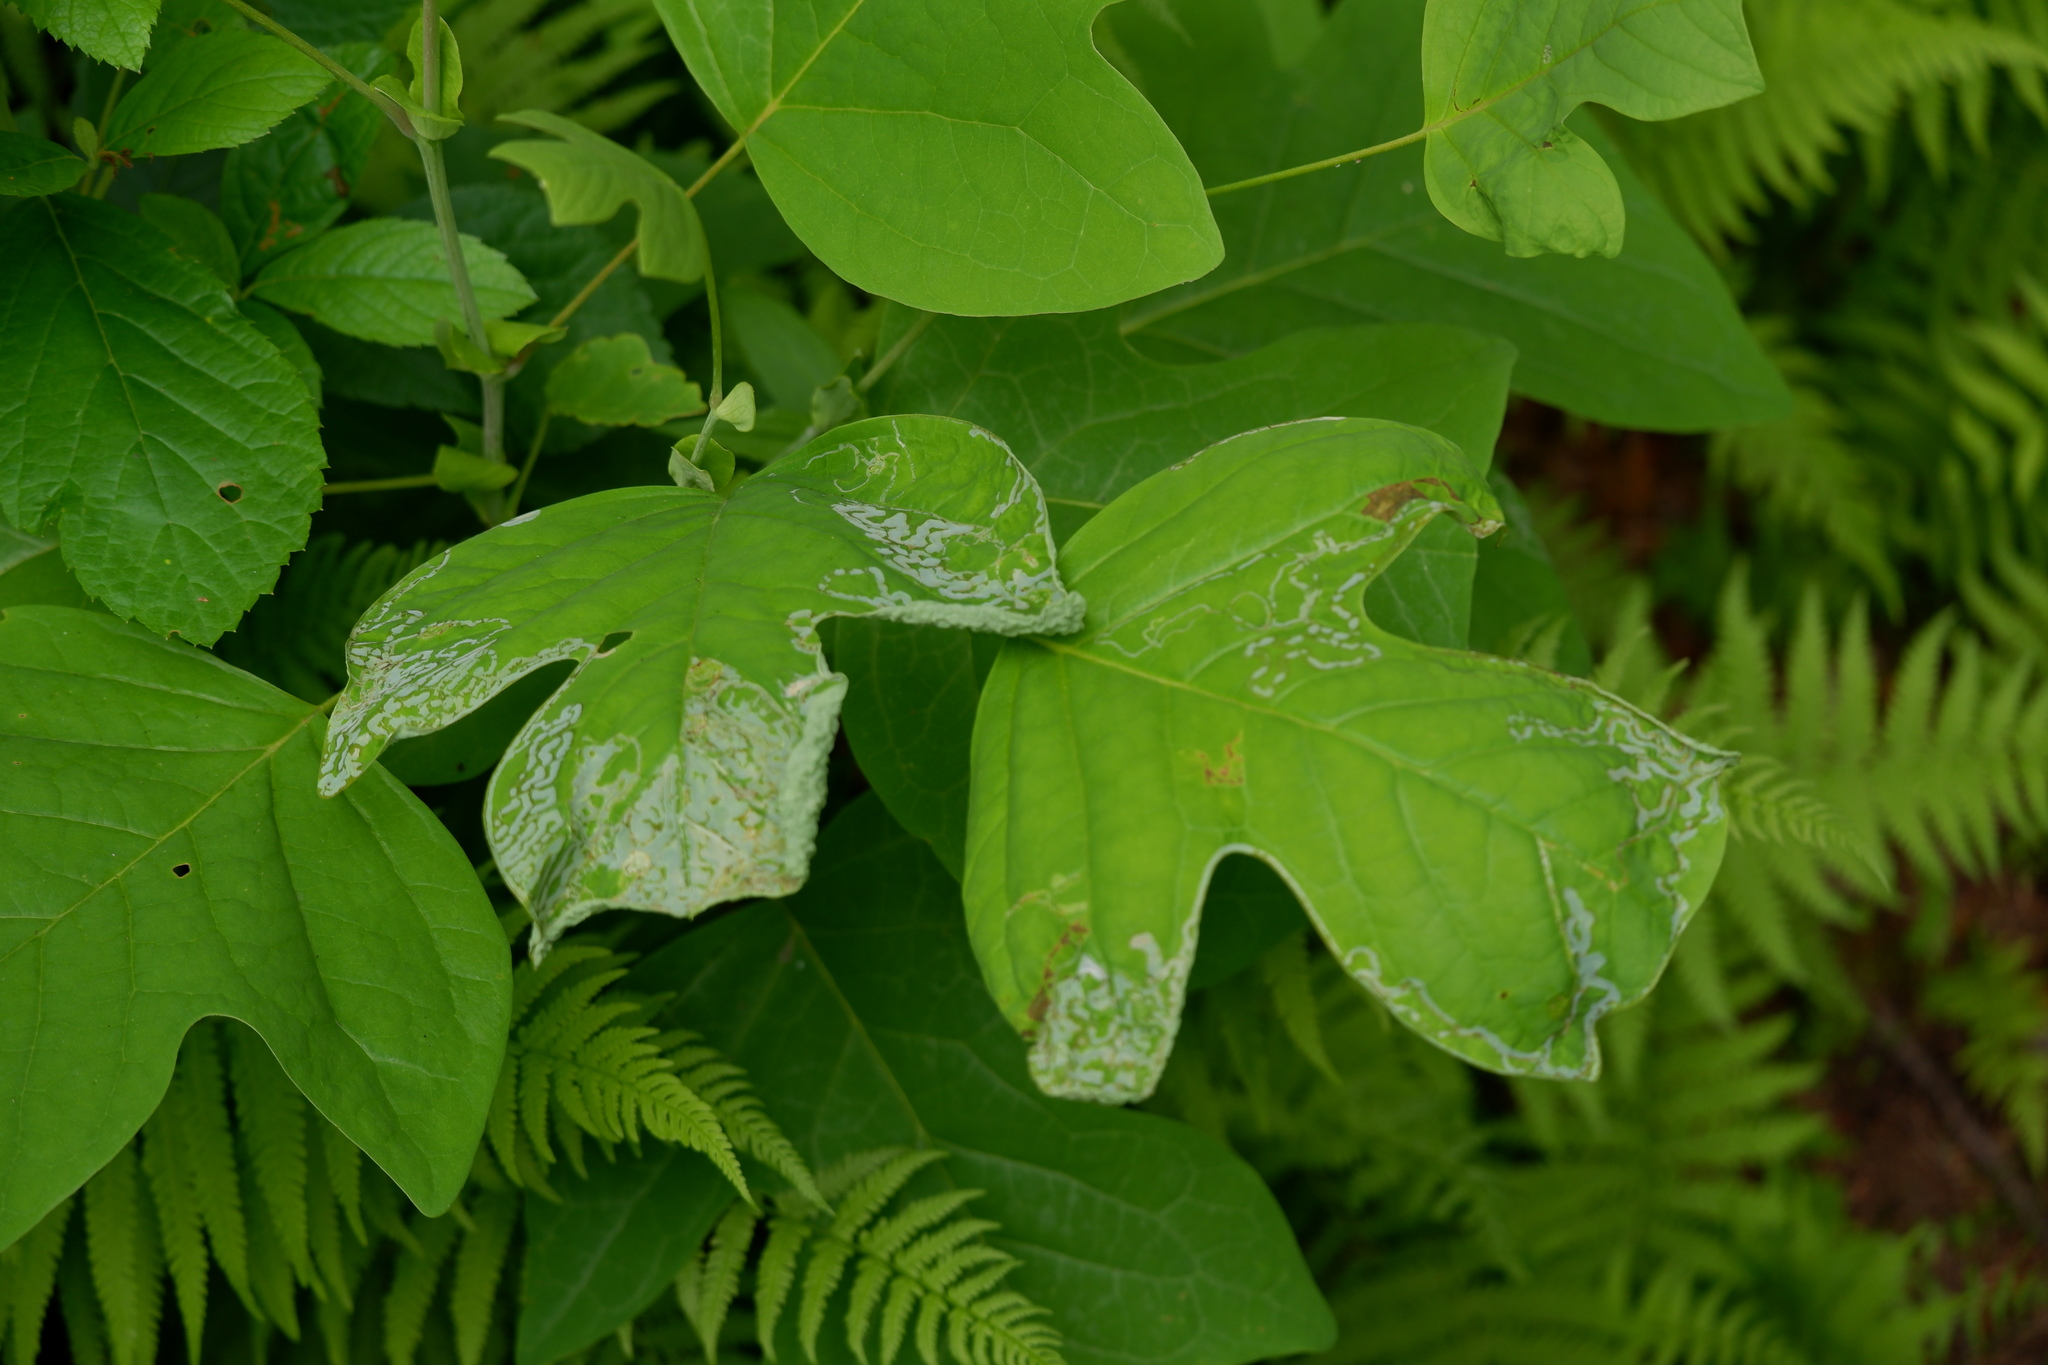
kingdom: Animalia
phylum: Arthropoda
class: Insecta
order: Lepidoptera
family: Gracillariidae
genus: Phyllocnistis
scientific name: Phyllocnistis liriodendronella
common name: Tulip tree leaf miner
